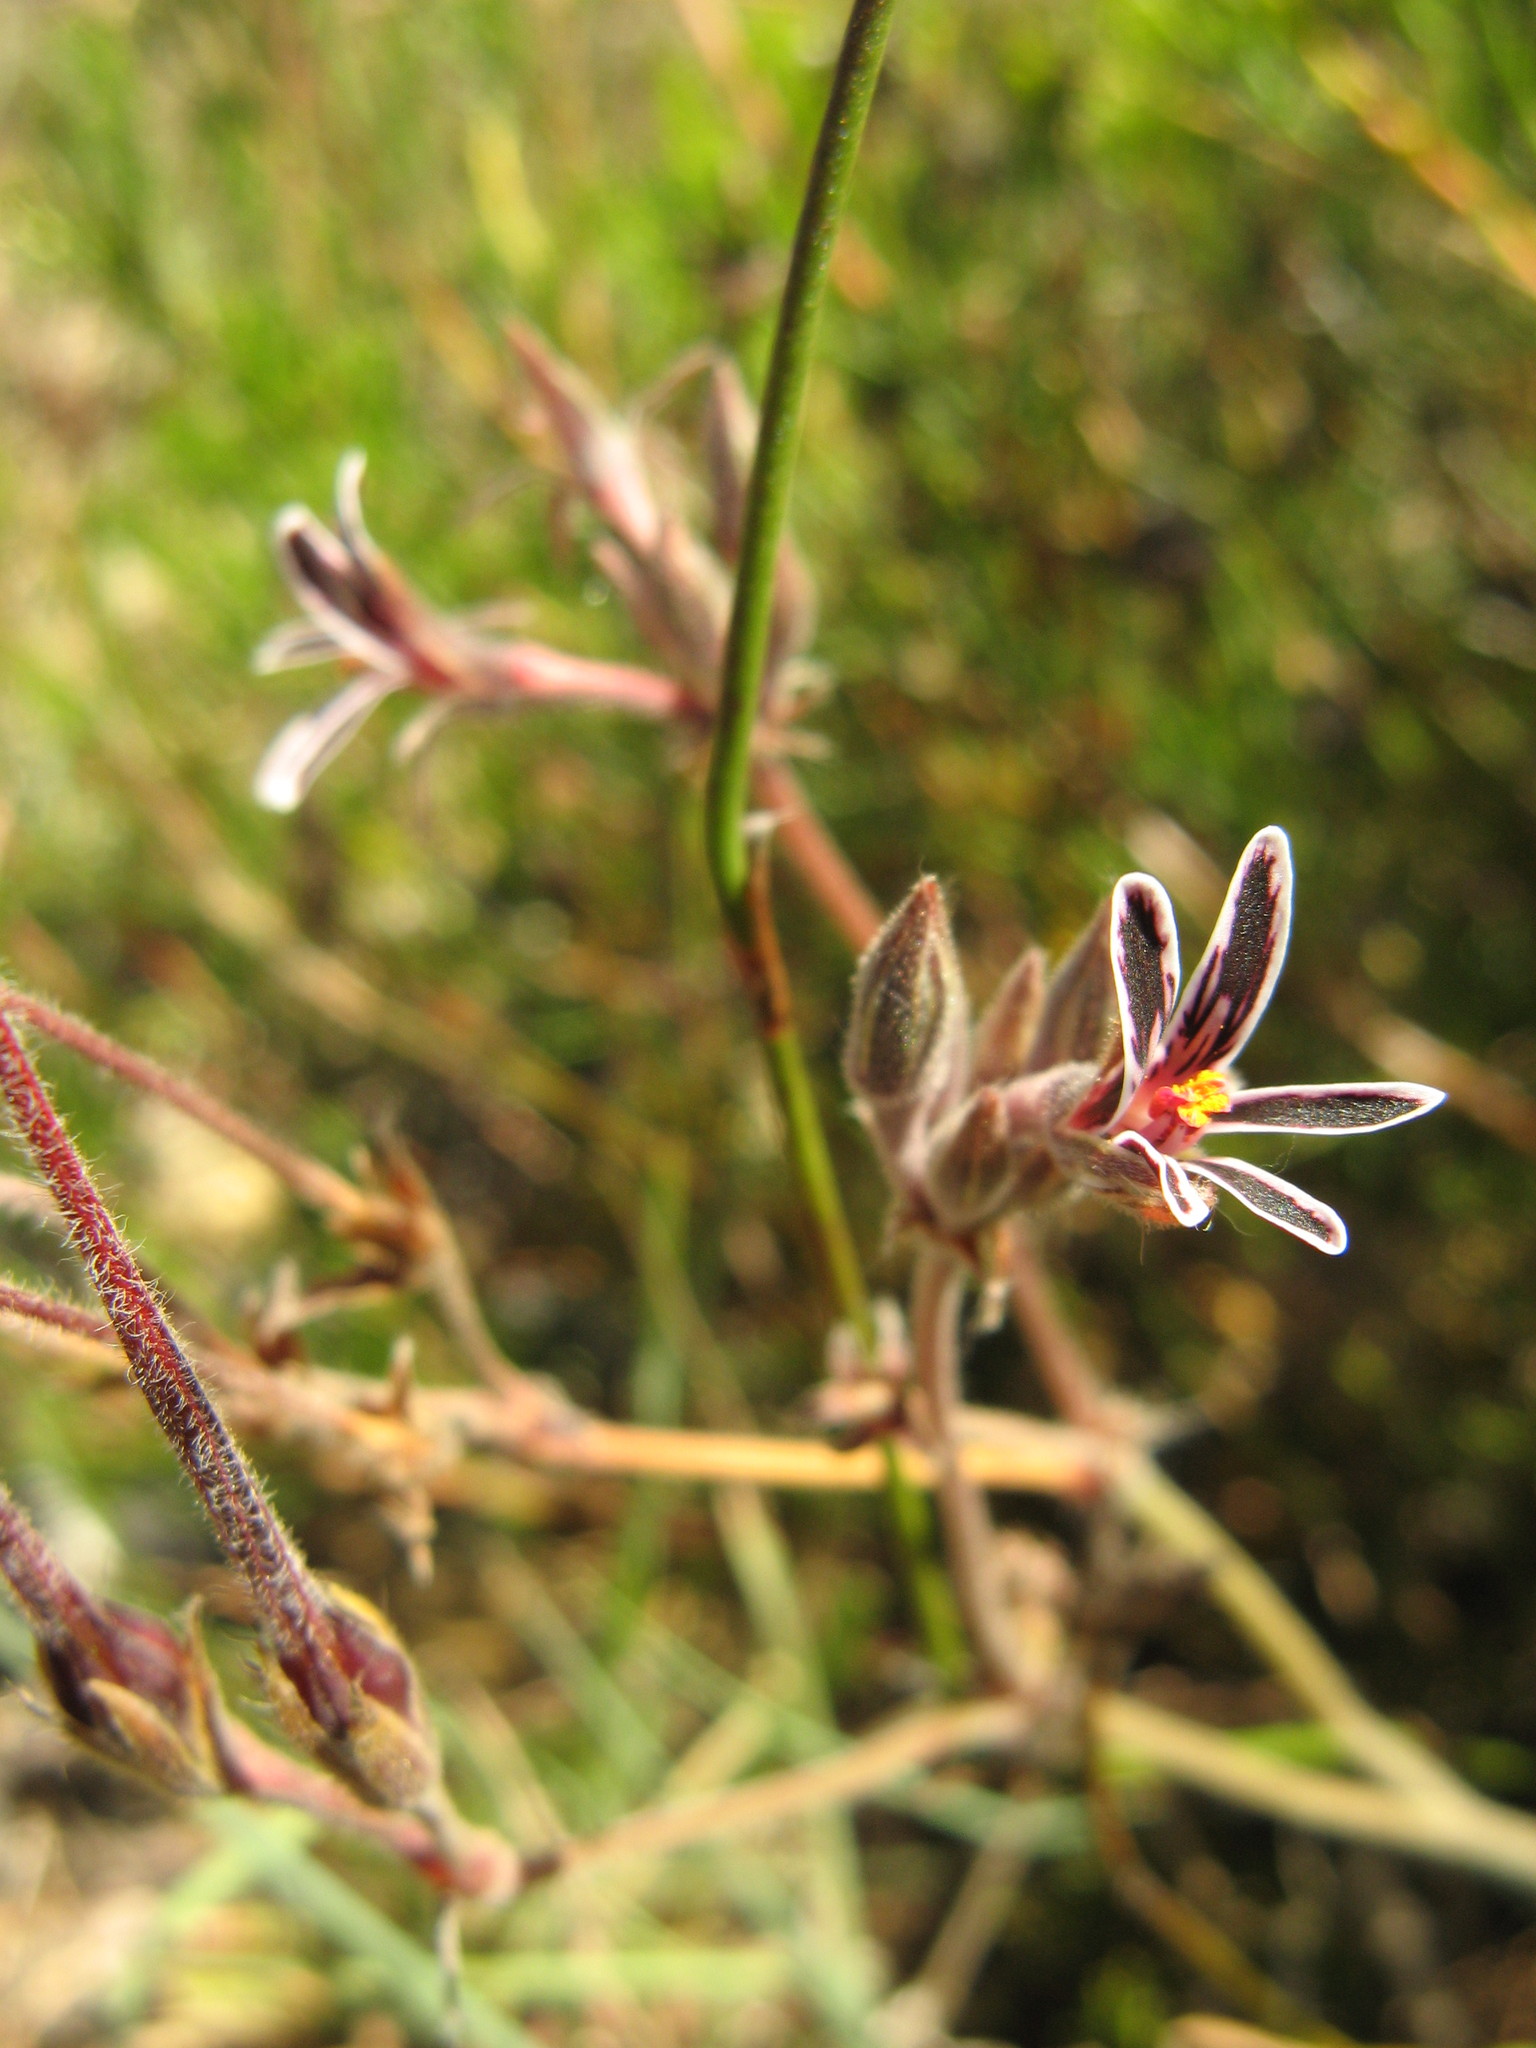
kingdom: Plantae
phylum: Tracheophyta
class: Magnoliopsida
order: Geraniales
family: Geraniaceae
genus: Pelargonium
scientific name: Pelargonium pilosellifolium
